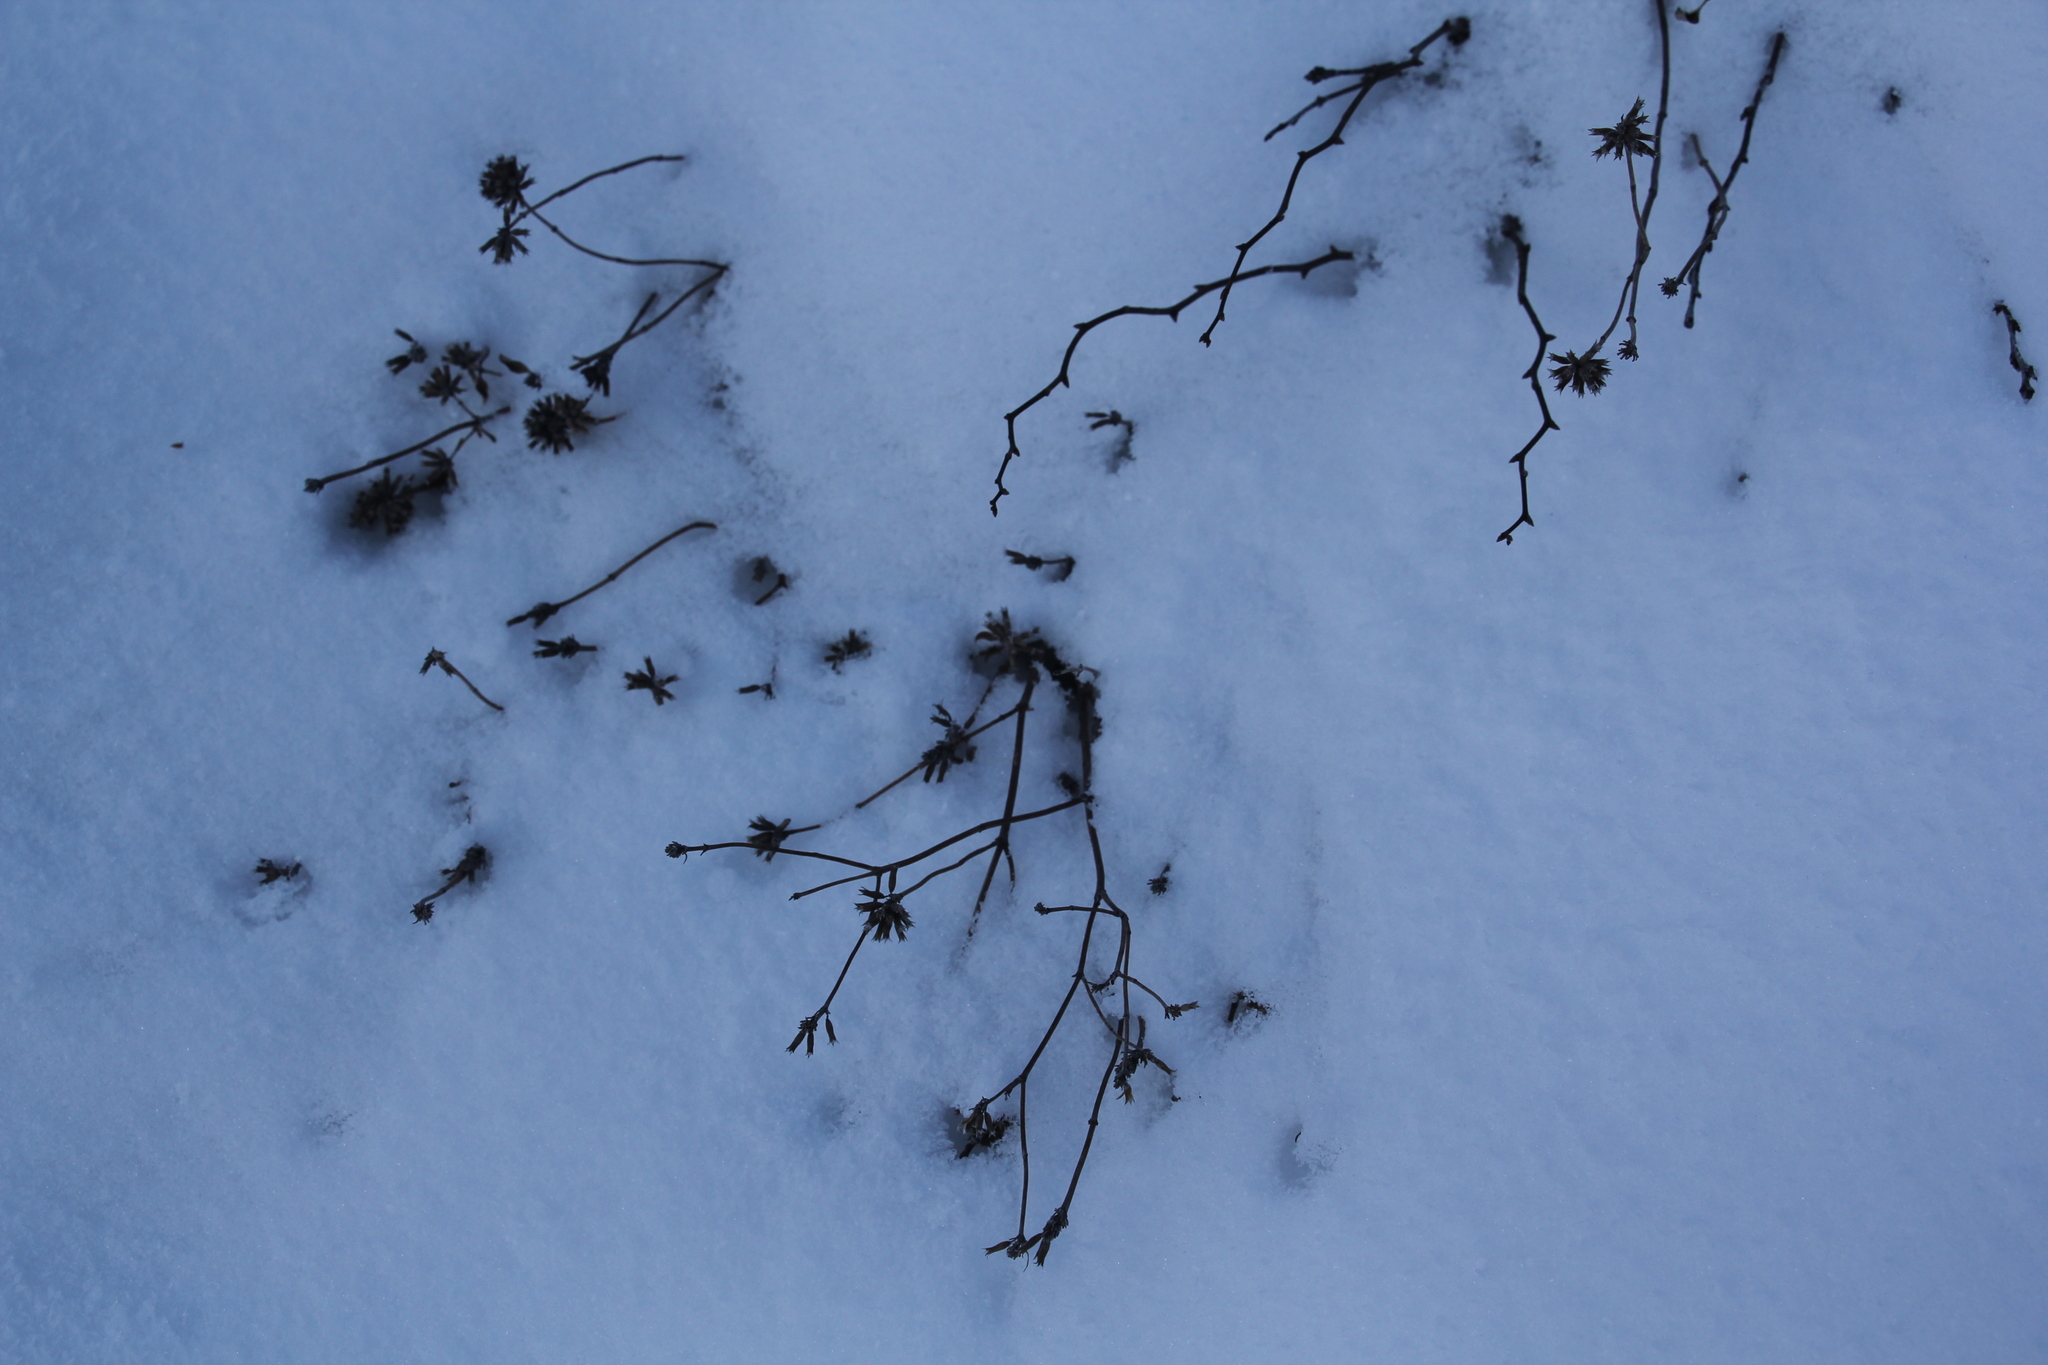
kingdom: Plantae
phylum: Tracheophyta
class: Magnoliopsida
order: Lamiales
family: Lamiaceae
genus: Ziziphora
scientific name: Ziziphora clinopodioides
